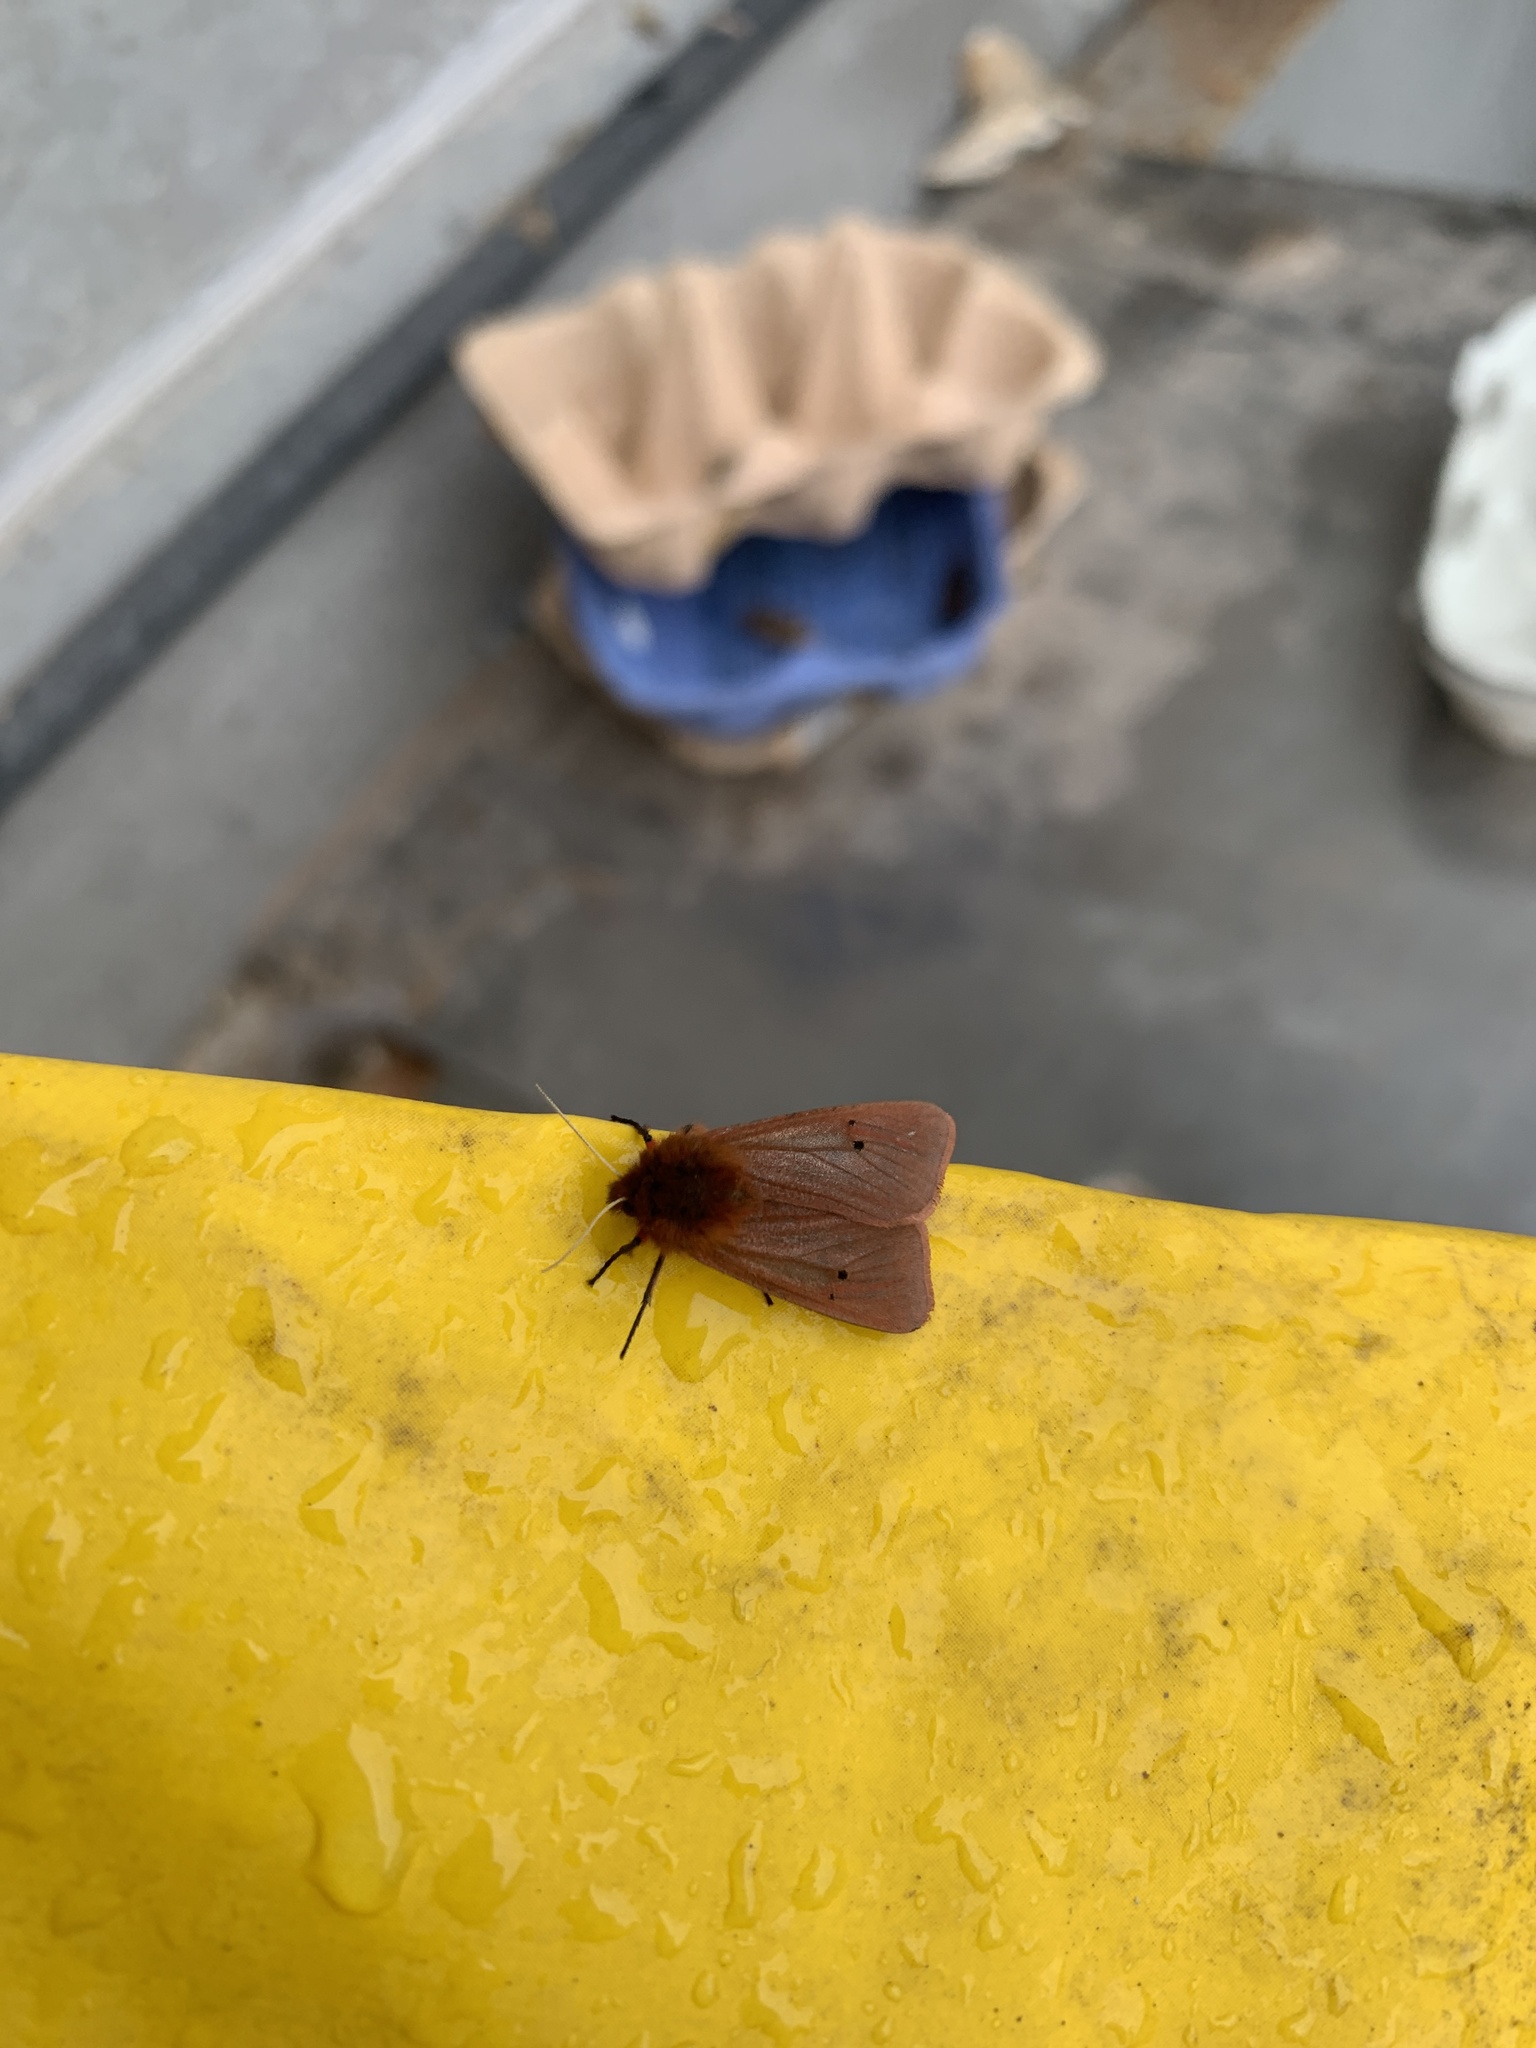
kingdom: Animalia
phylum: Arthropoda
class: Insecta
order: Lepidoptera
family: Erebidae
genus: Phragmatobia
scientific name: Phragmatobia fuliginosa
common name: Ruby tiger
